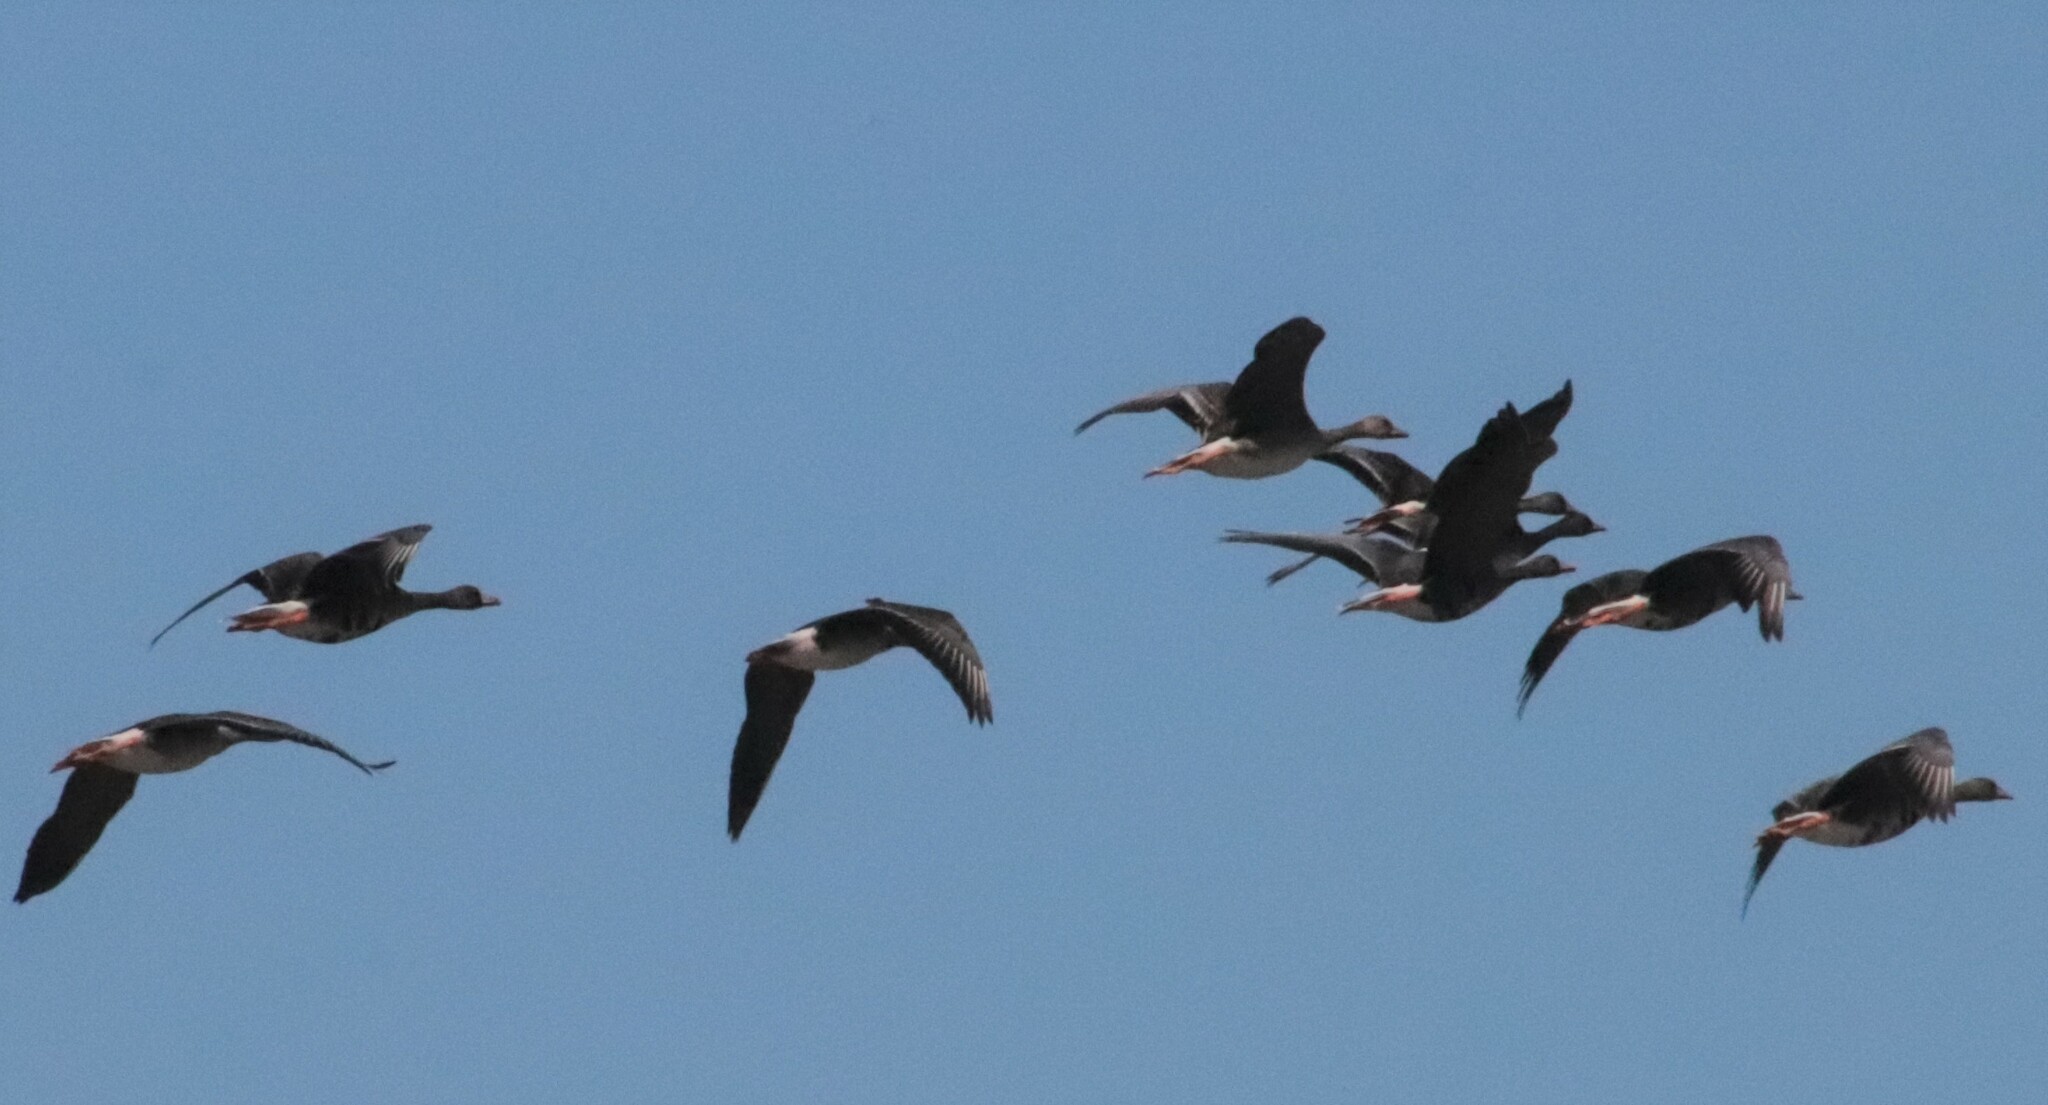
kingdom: Animalia
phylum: Chordata
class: Aves
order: Anseriformes
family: Anatidae
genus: Anser
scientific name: Anser albifrons
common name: Greater white-fronted goose
